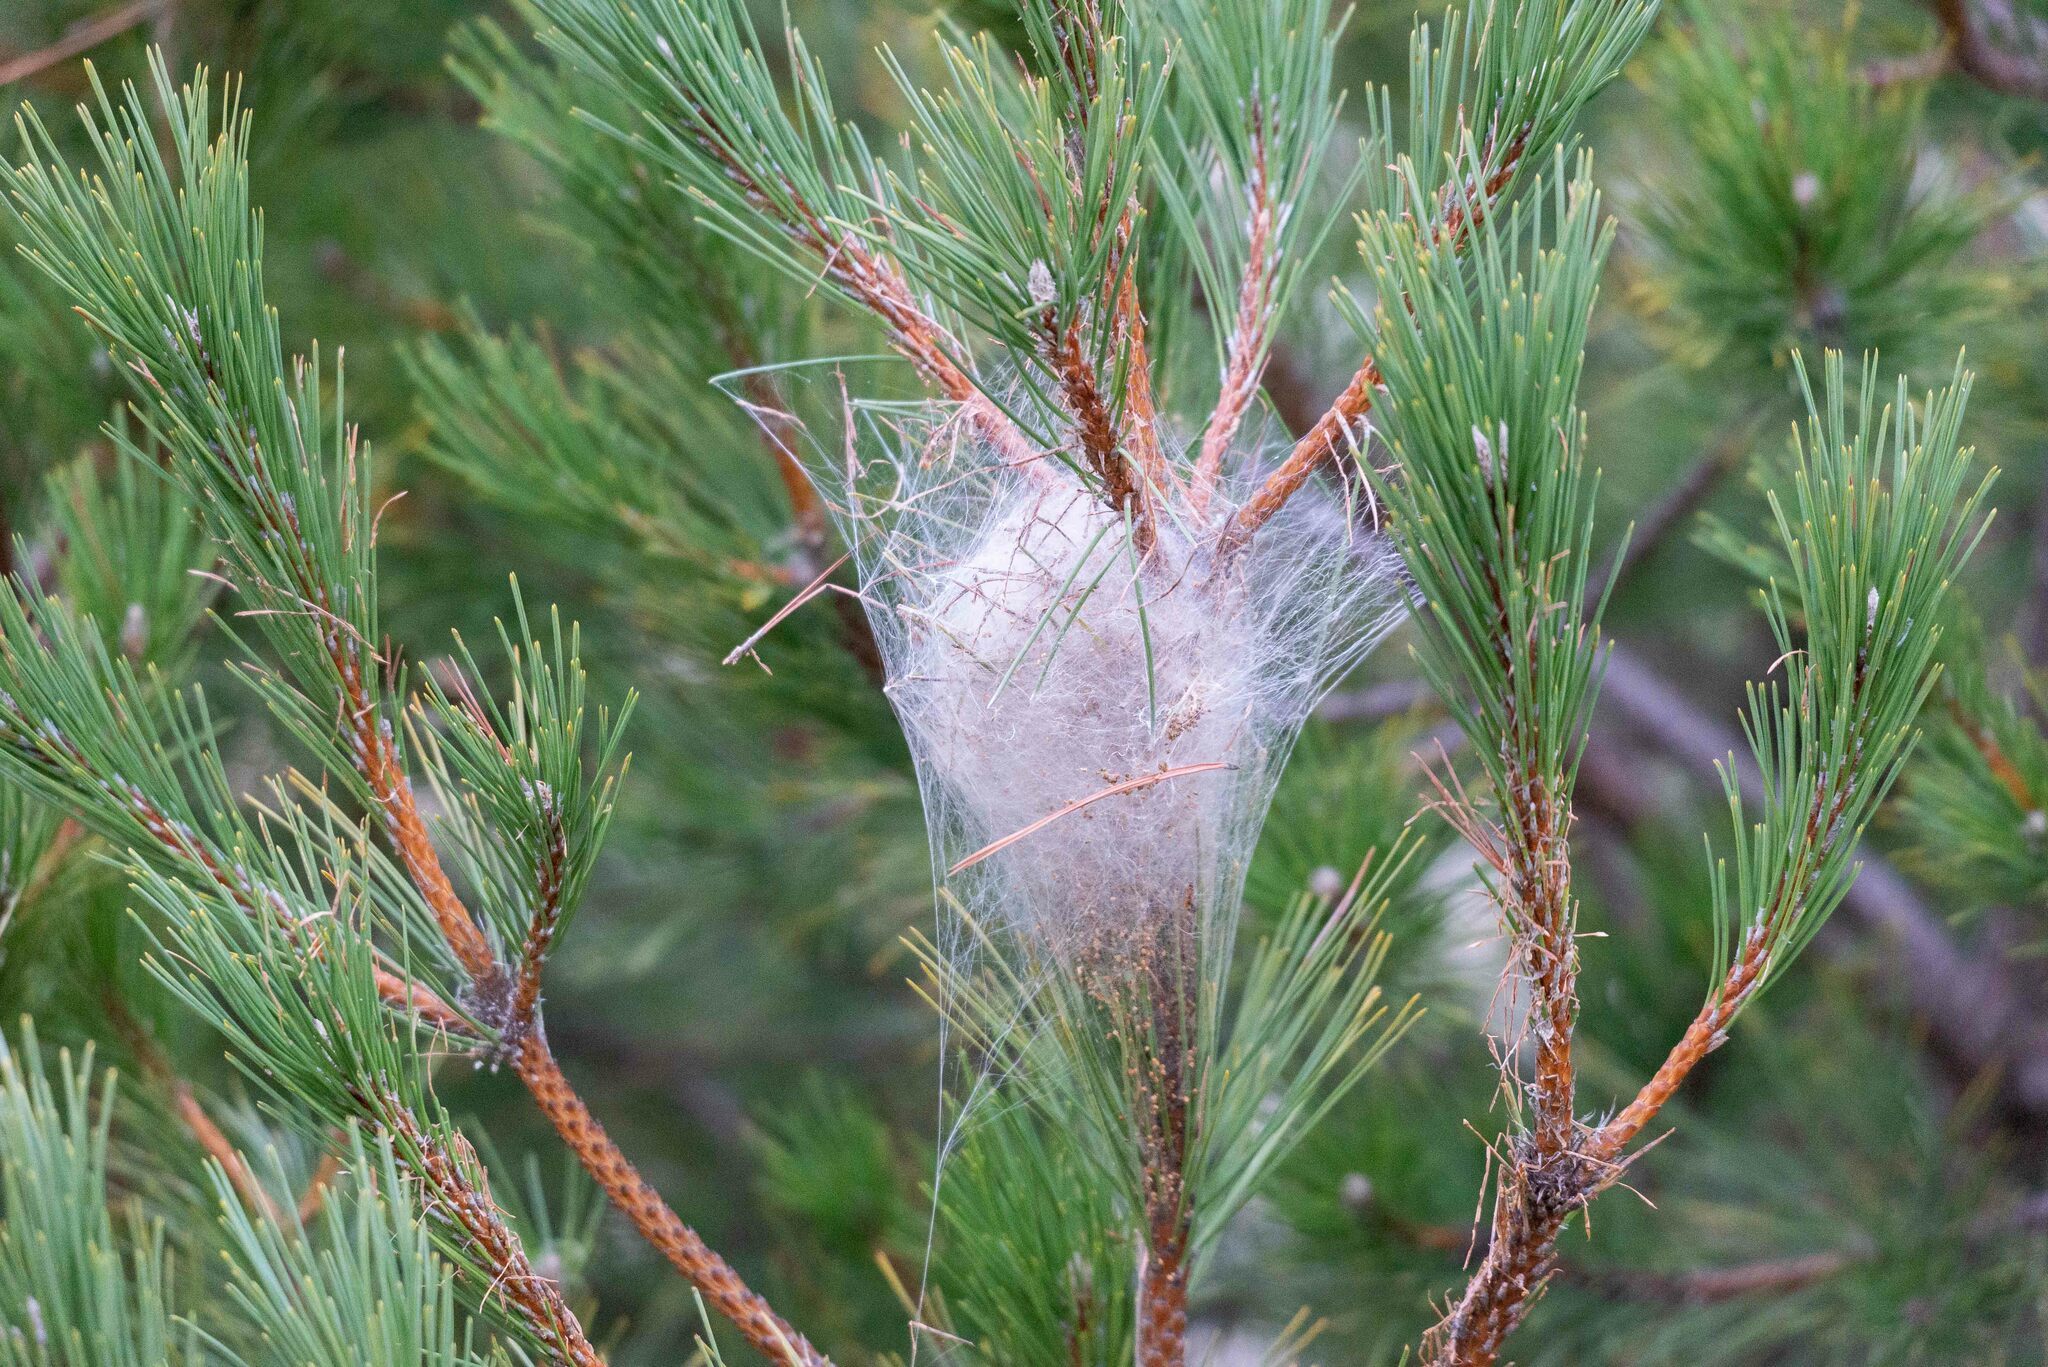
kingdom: Animalia
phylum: Arthropoda
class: Insecta
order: Lepidoptera
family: Notodontidae
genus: Thaumetopoea
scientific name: Thaumetopoea pityocampa
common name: Pine processionary
